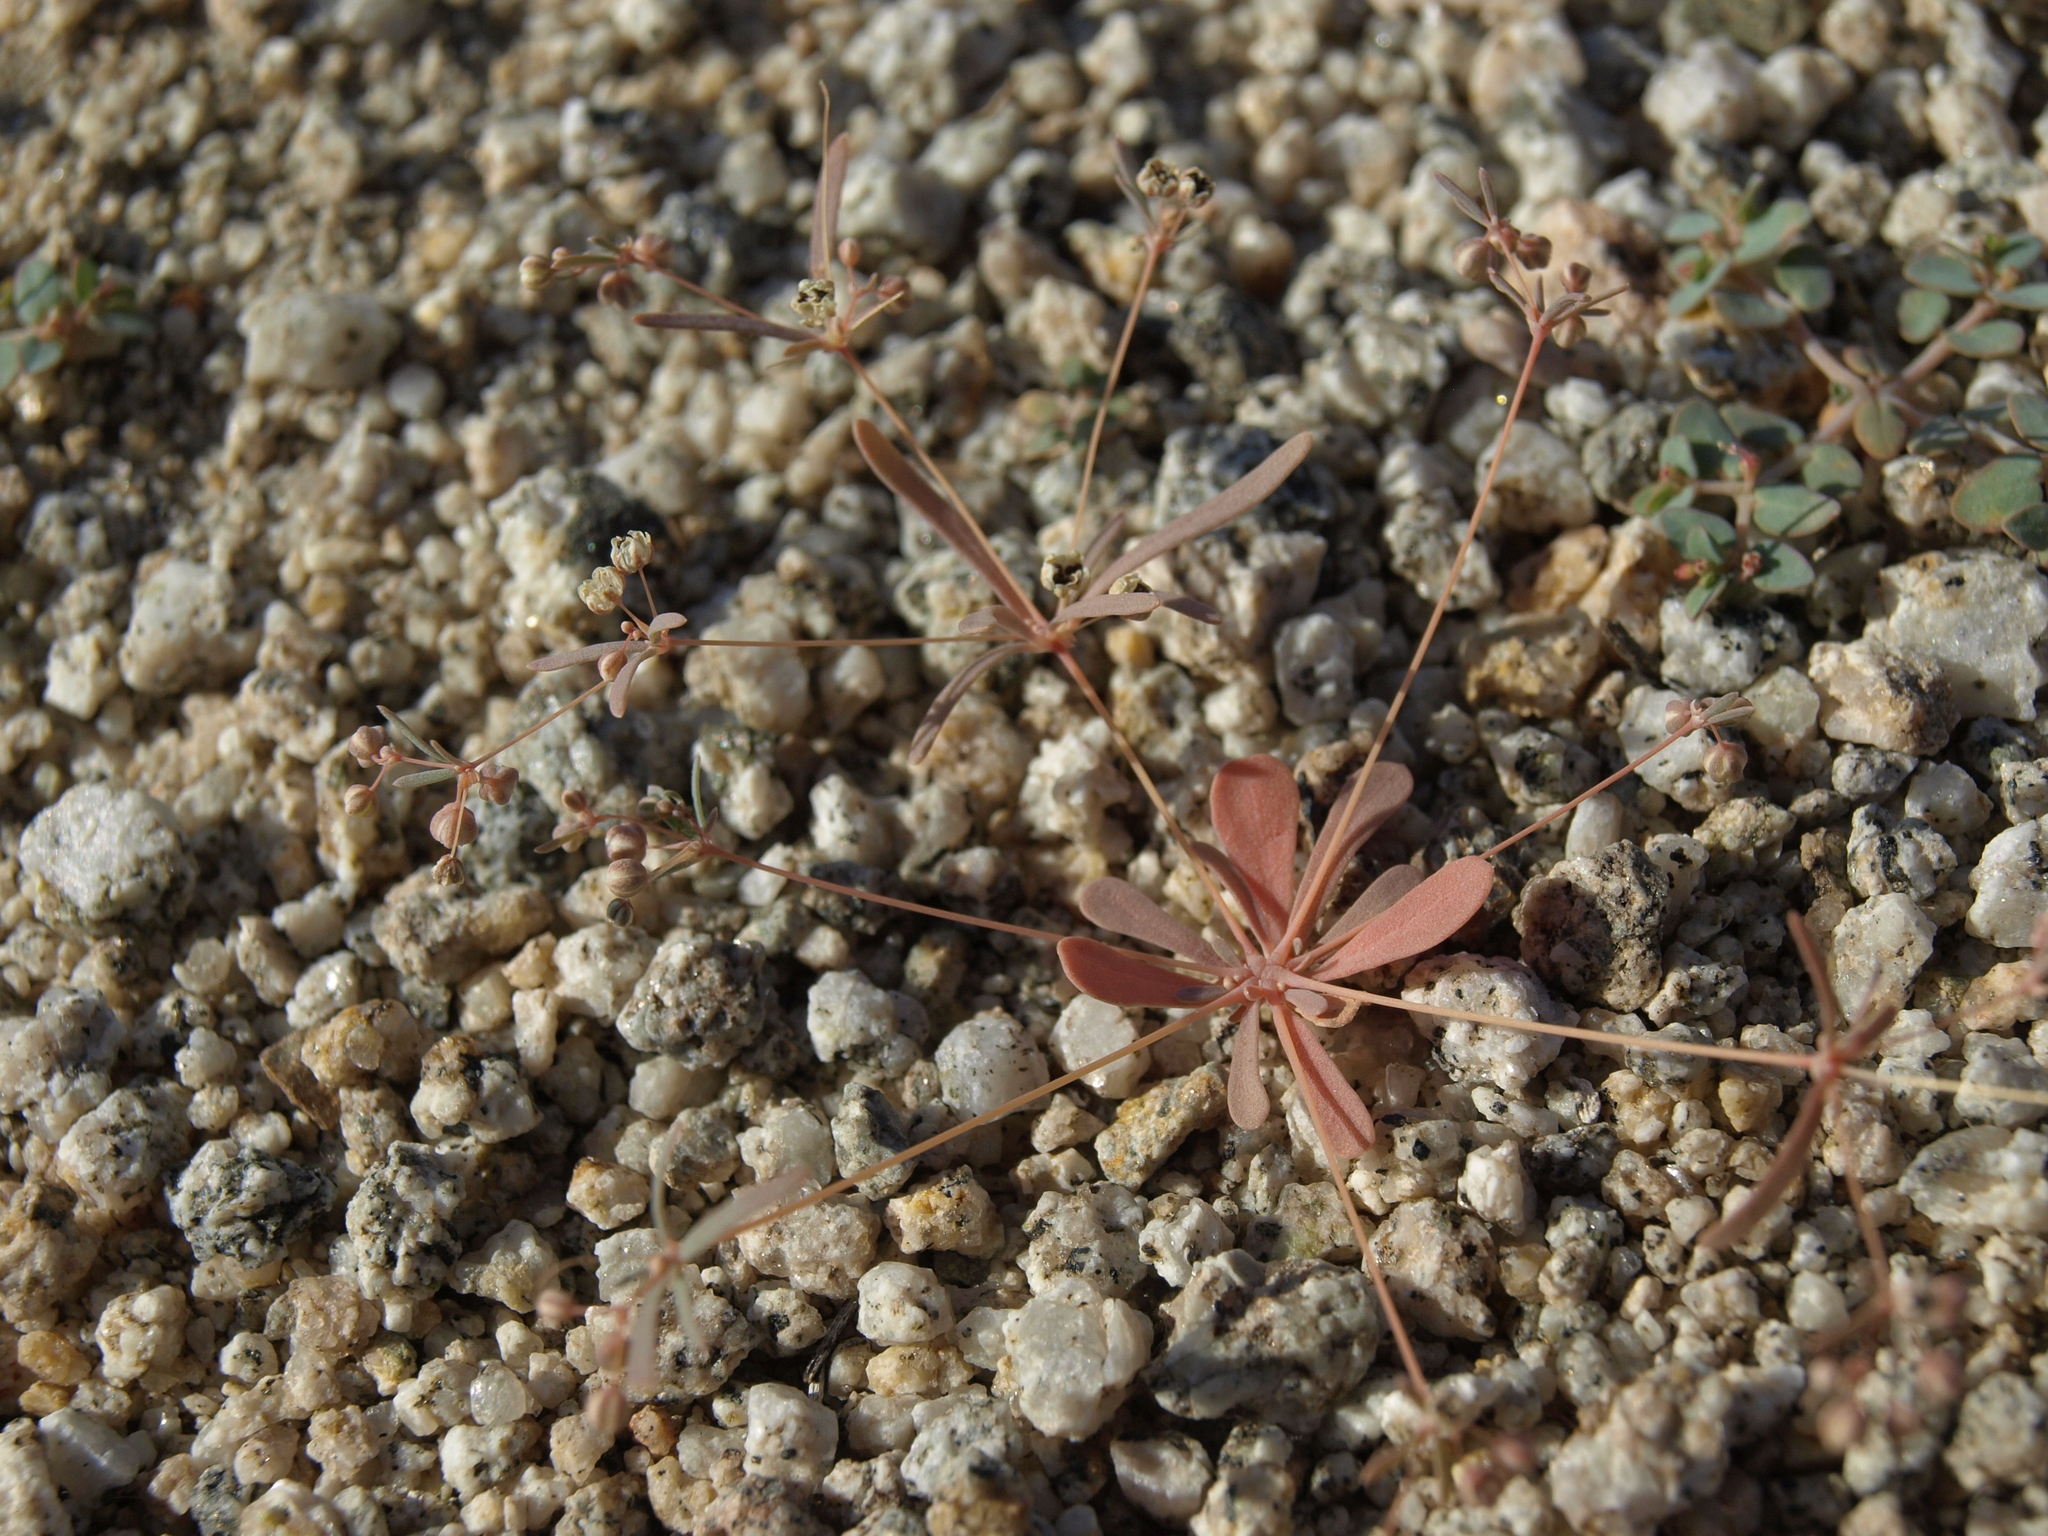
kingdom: Plantae
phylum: Tracheophyta
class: Magnoliopsida
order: Caryophyllales
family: Molluginaceae
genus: Hypertelis
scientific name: Hypertelis umbellata
